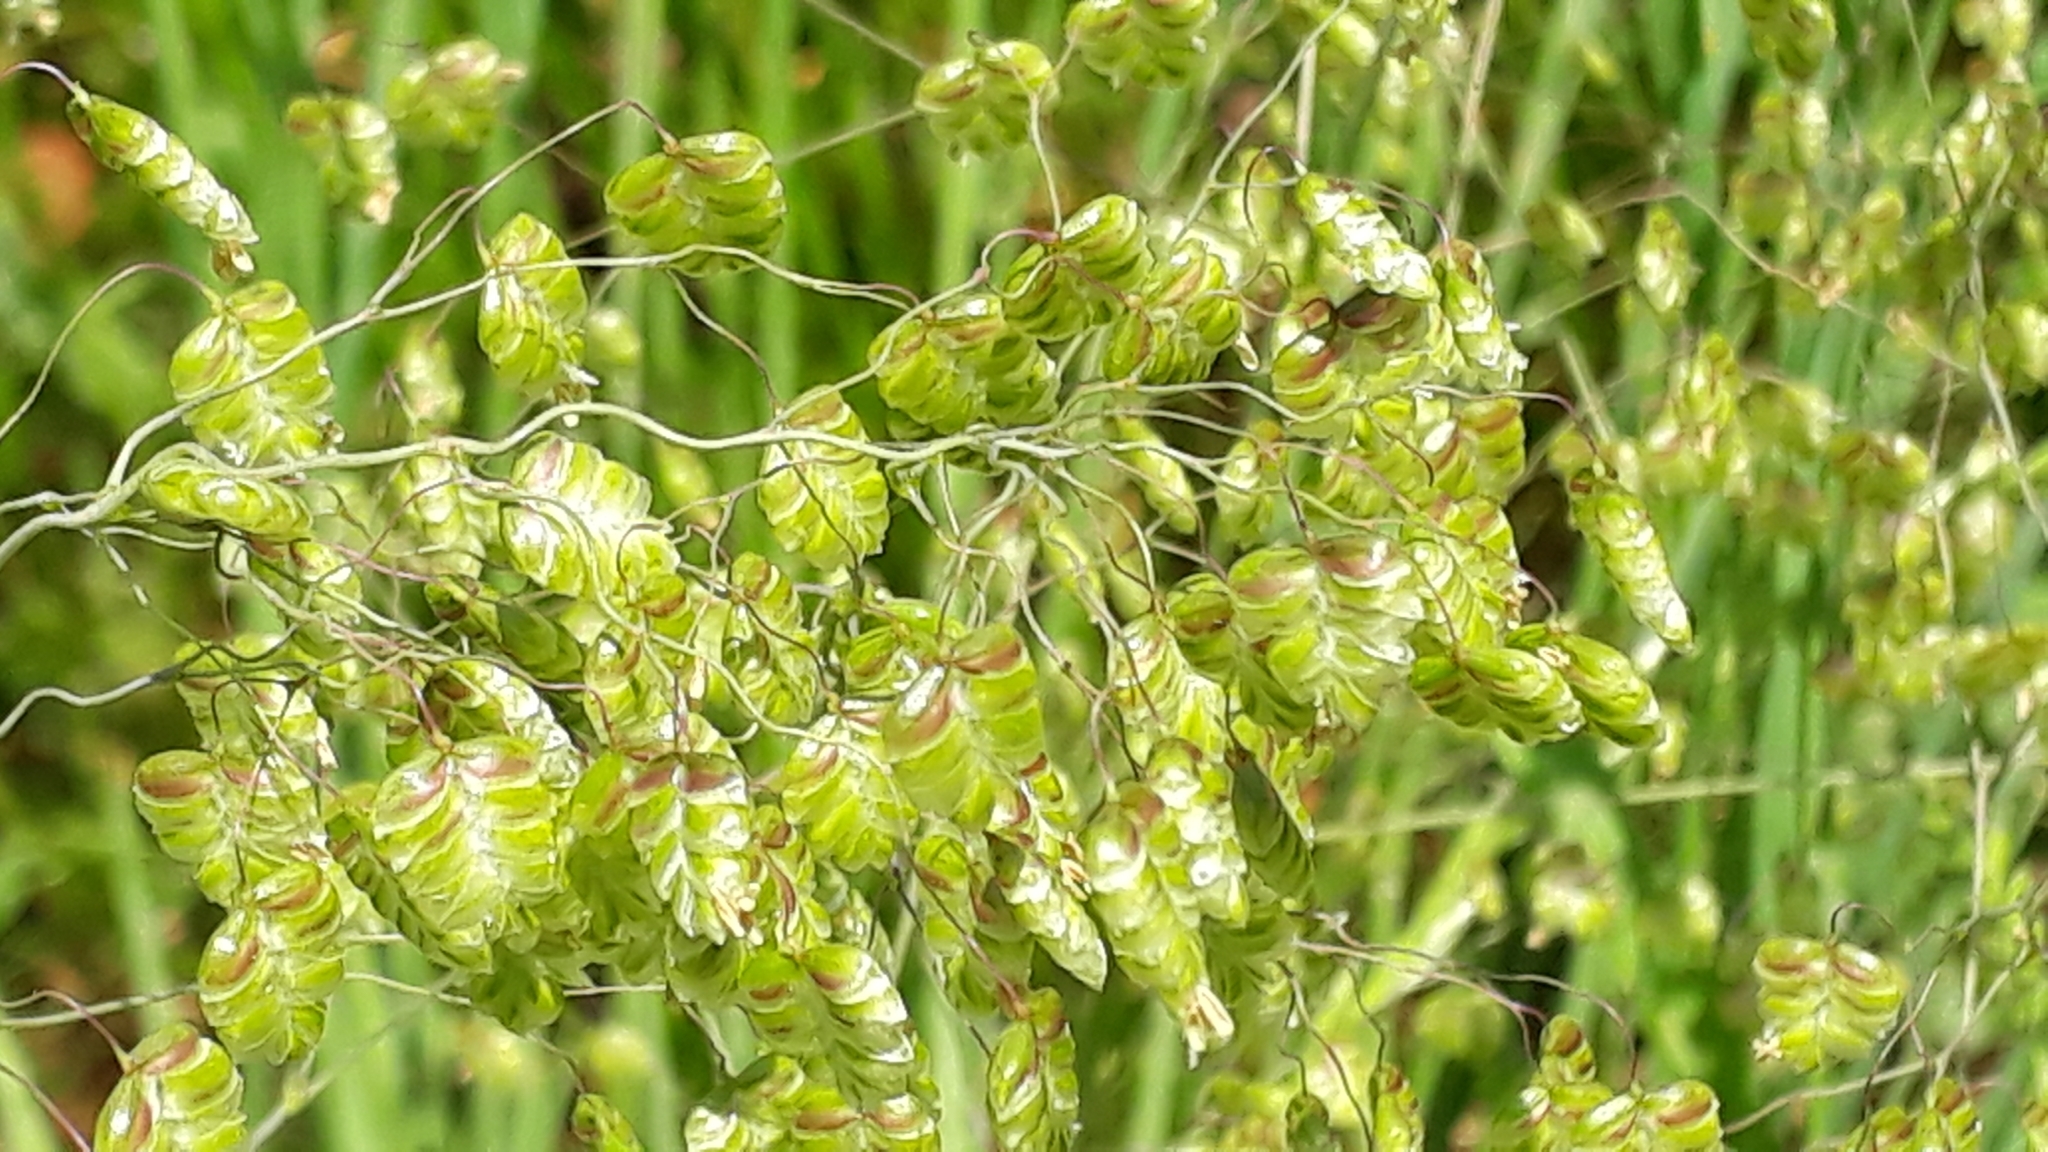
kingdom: Plantae
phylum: Tracheophyta
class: Liliopsida
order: Poales
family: Poaceae
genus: Briza
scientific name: Briza media
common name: Quaking grass
